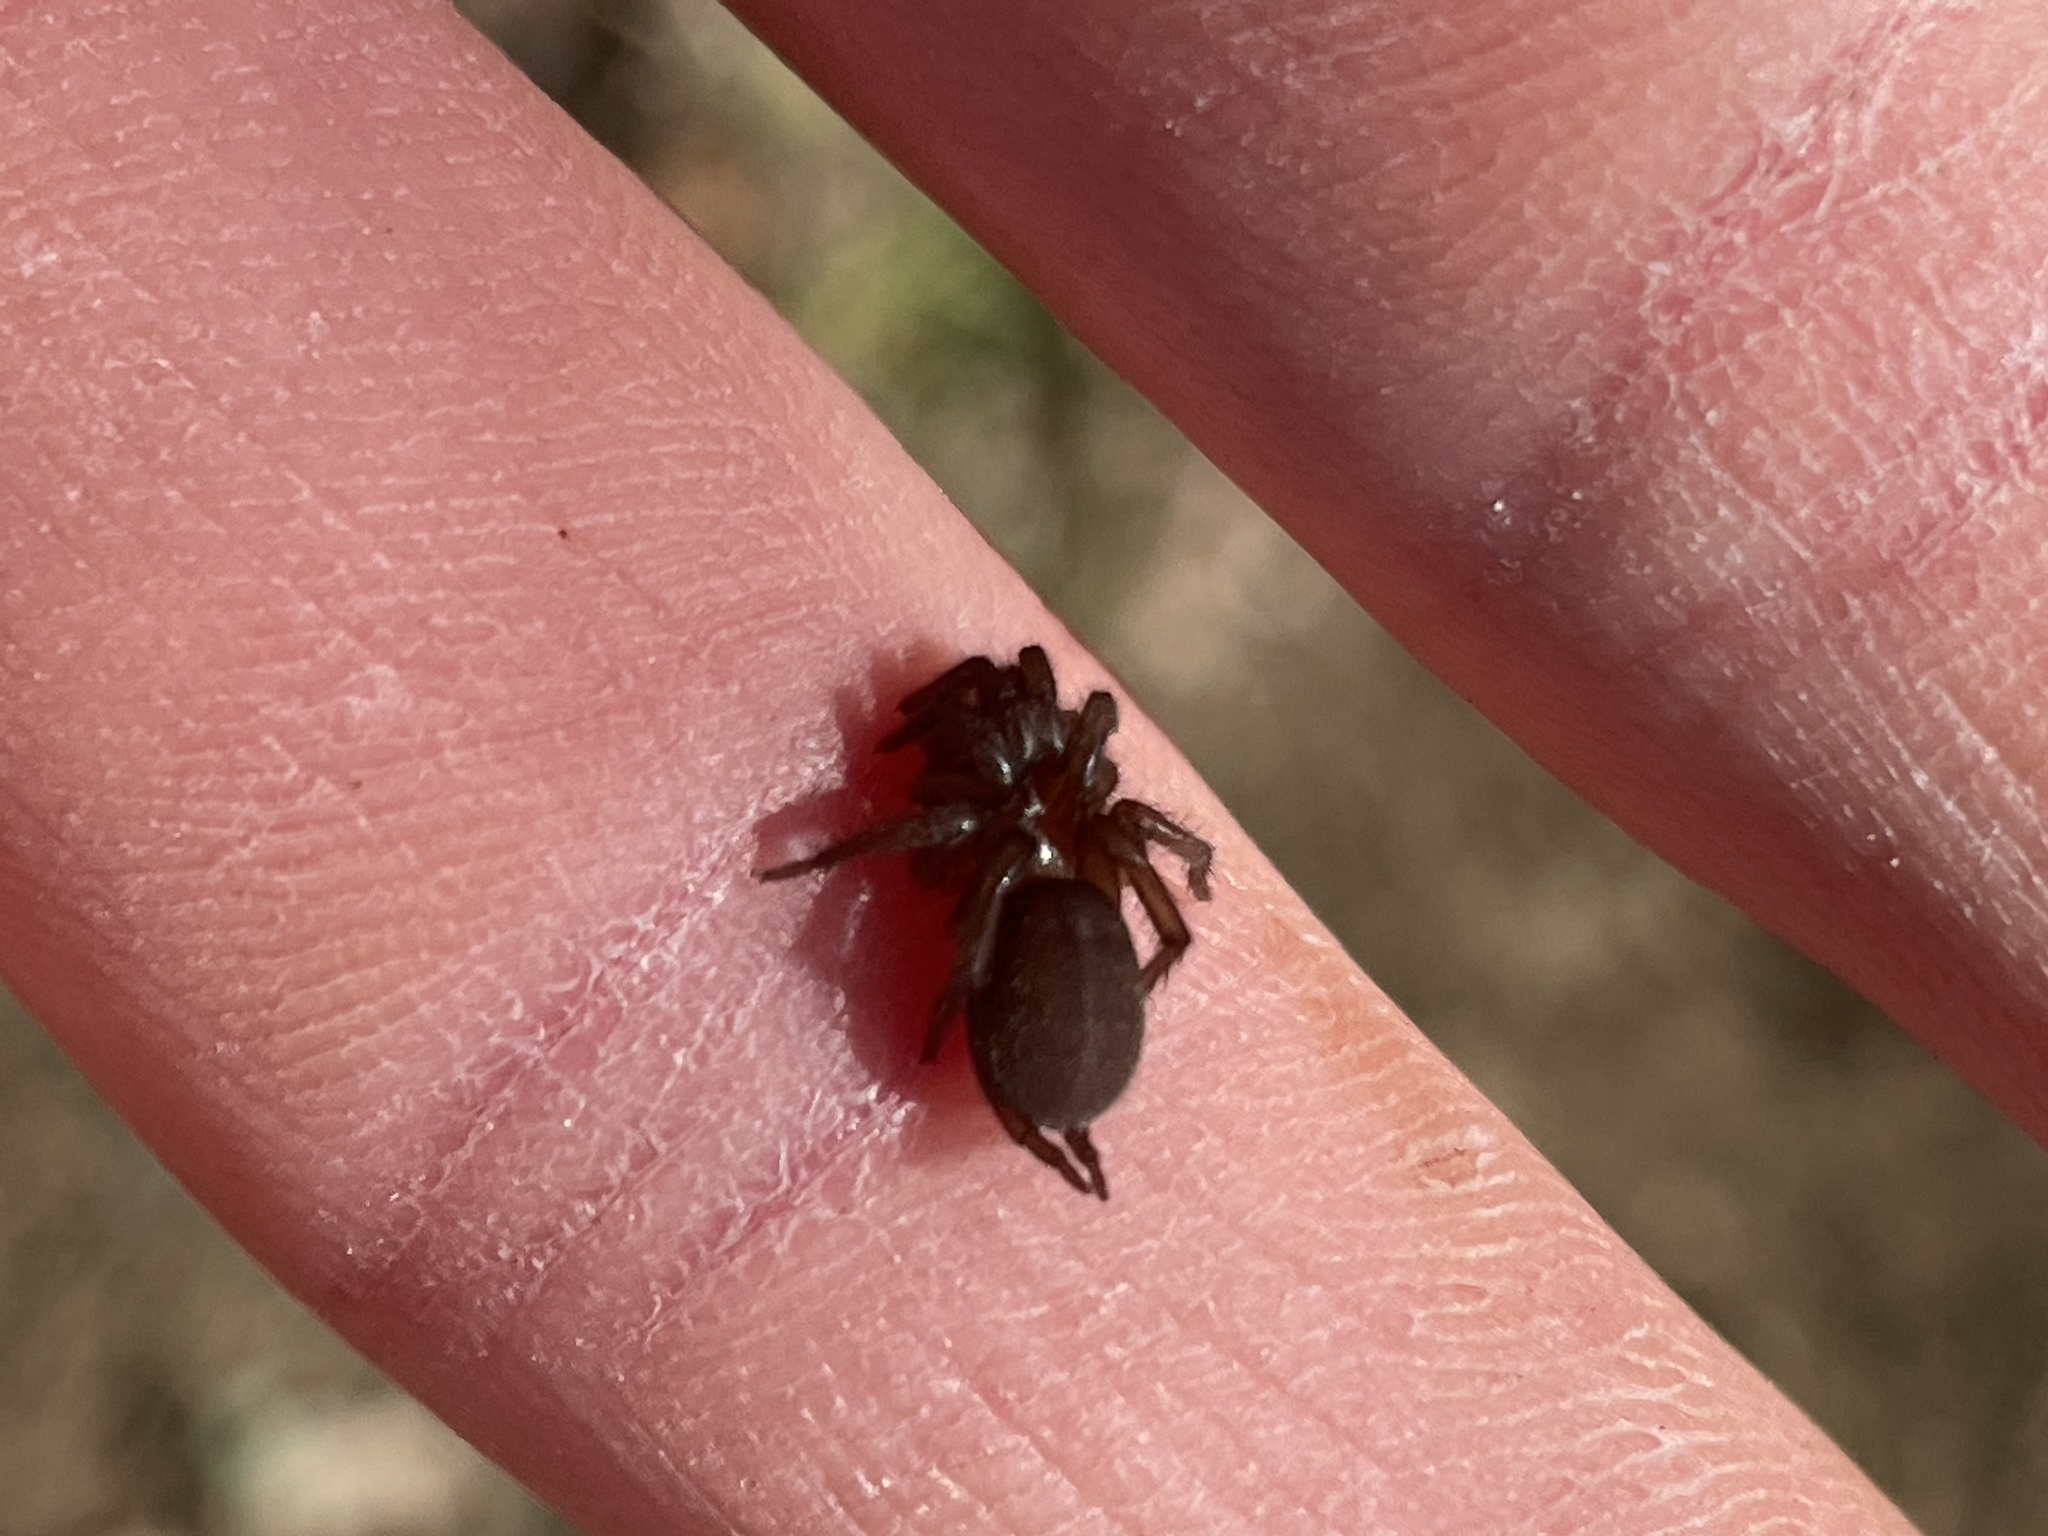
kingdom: Animalia
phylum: Arthropoda
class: Arachnida
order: Araneae
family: Euagridae
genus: Euagrus
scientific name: Euagrus chisoseus
